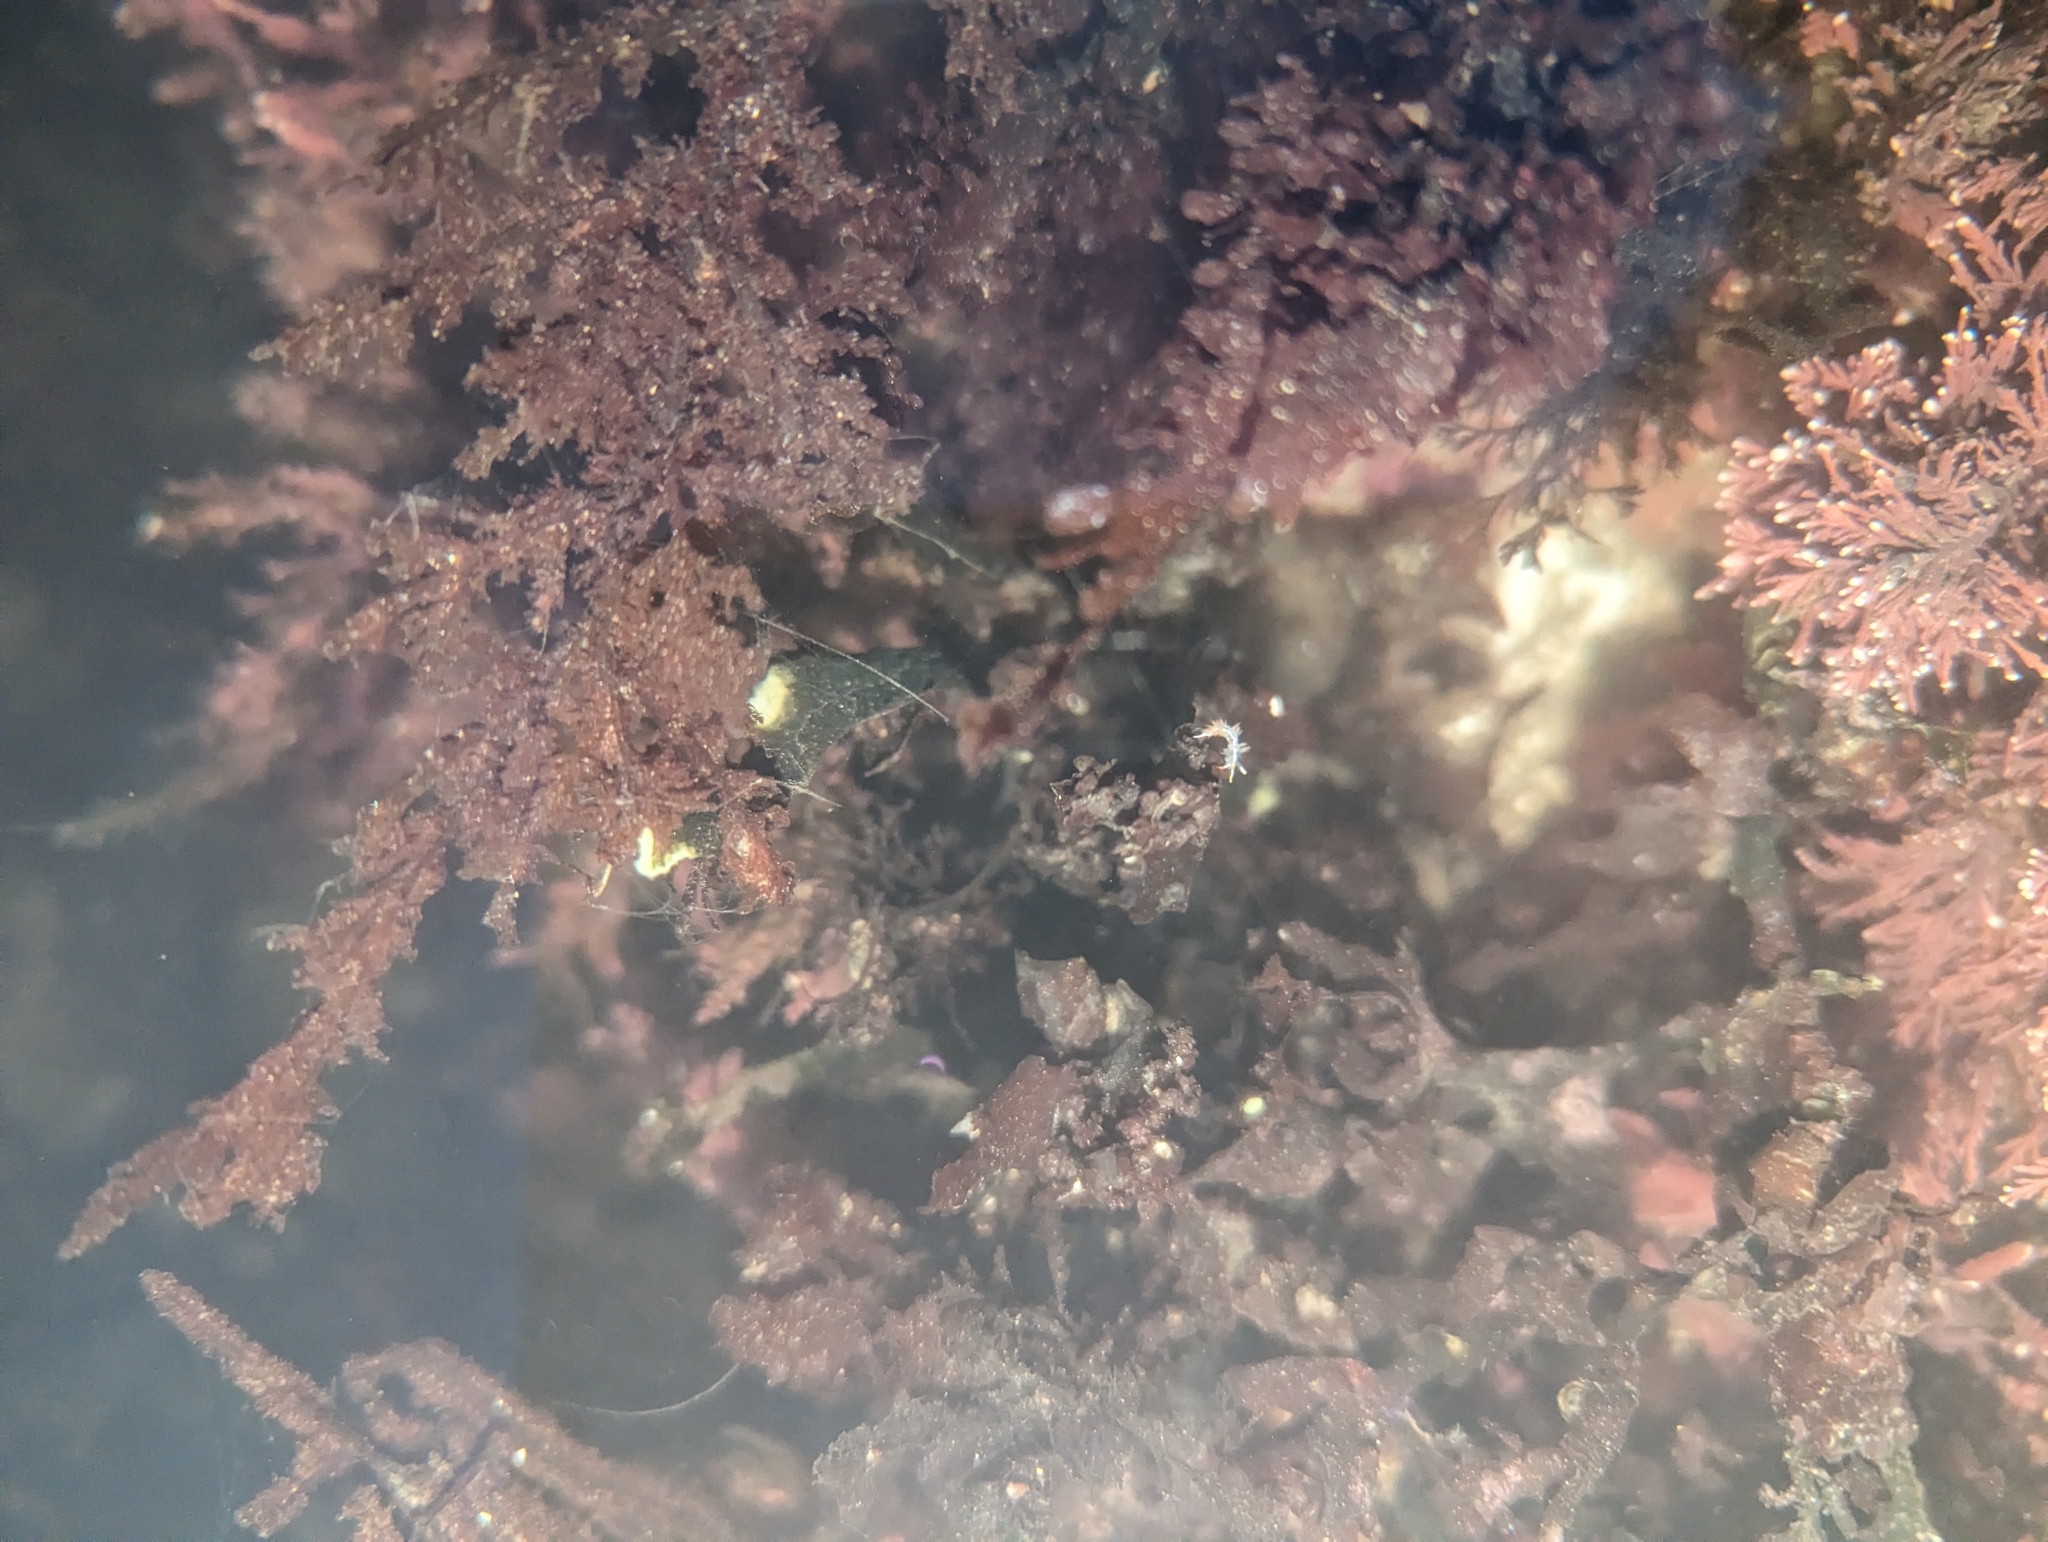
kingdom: Animalia
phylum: Mollusca
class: Gastropoda
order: Nudibranchia
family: Coryphellidae
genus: Coryphella
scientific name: Coryphella trilineata
